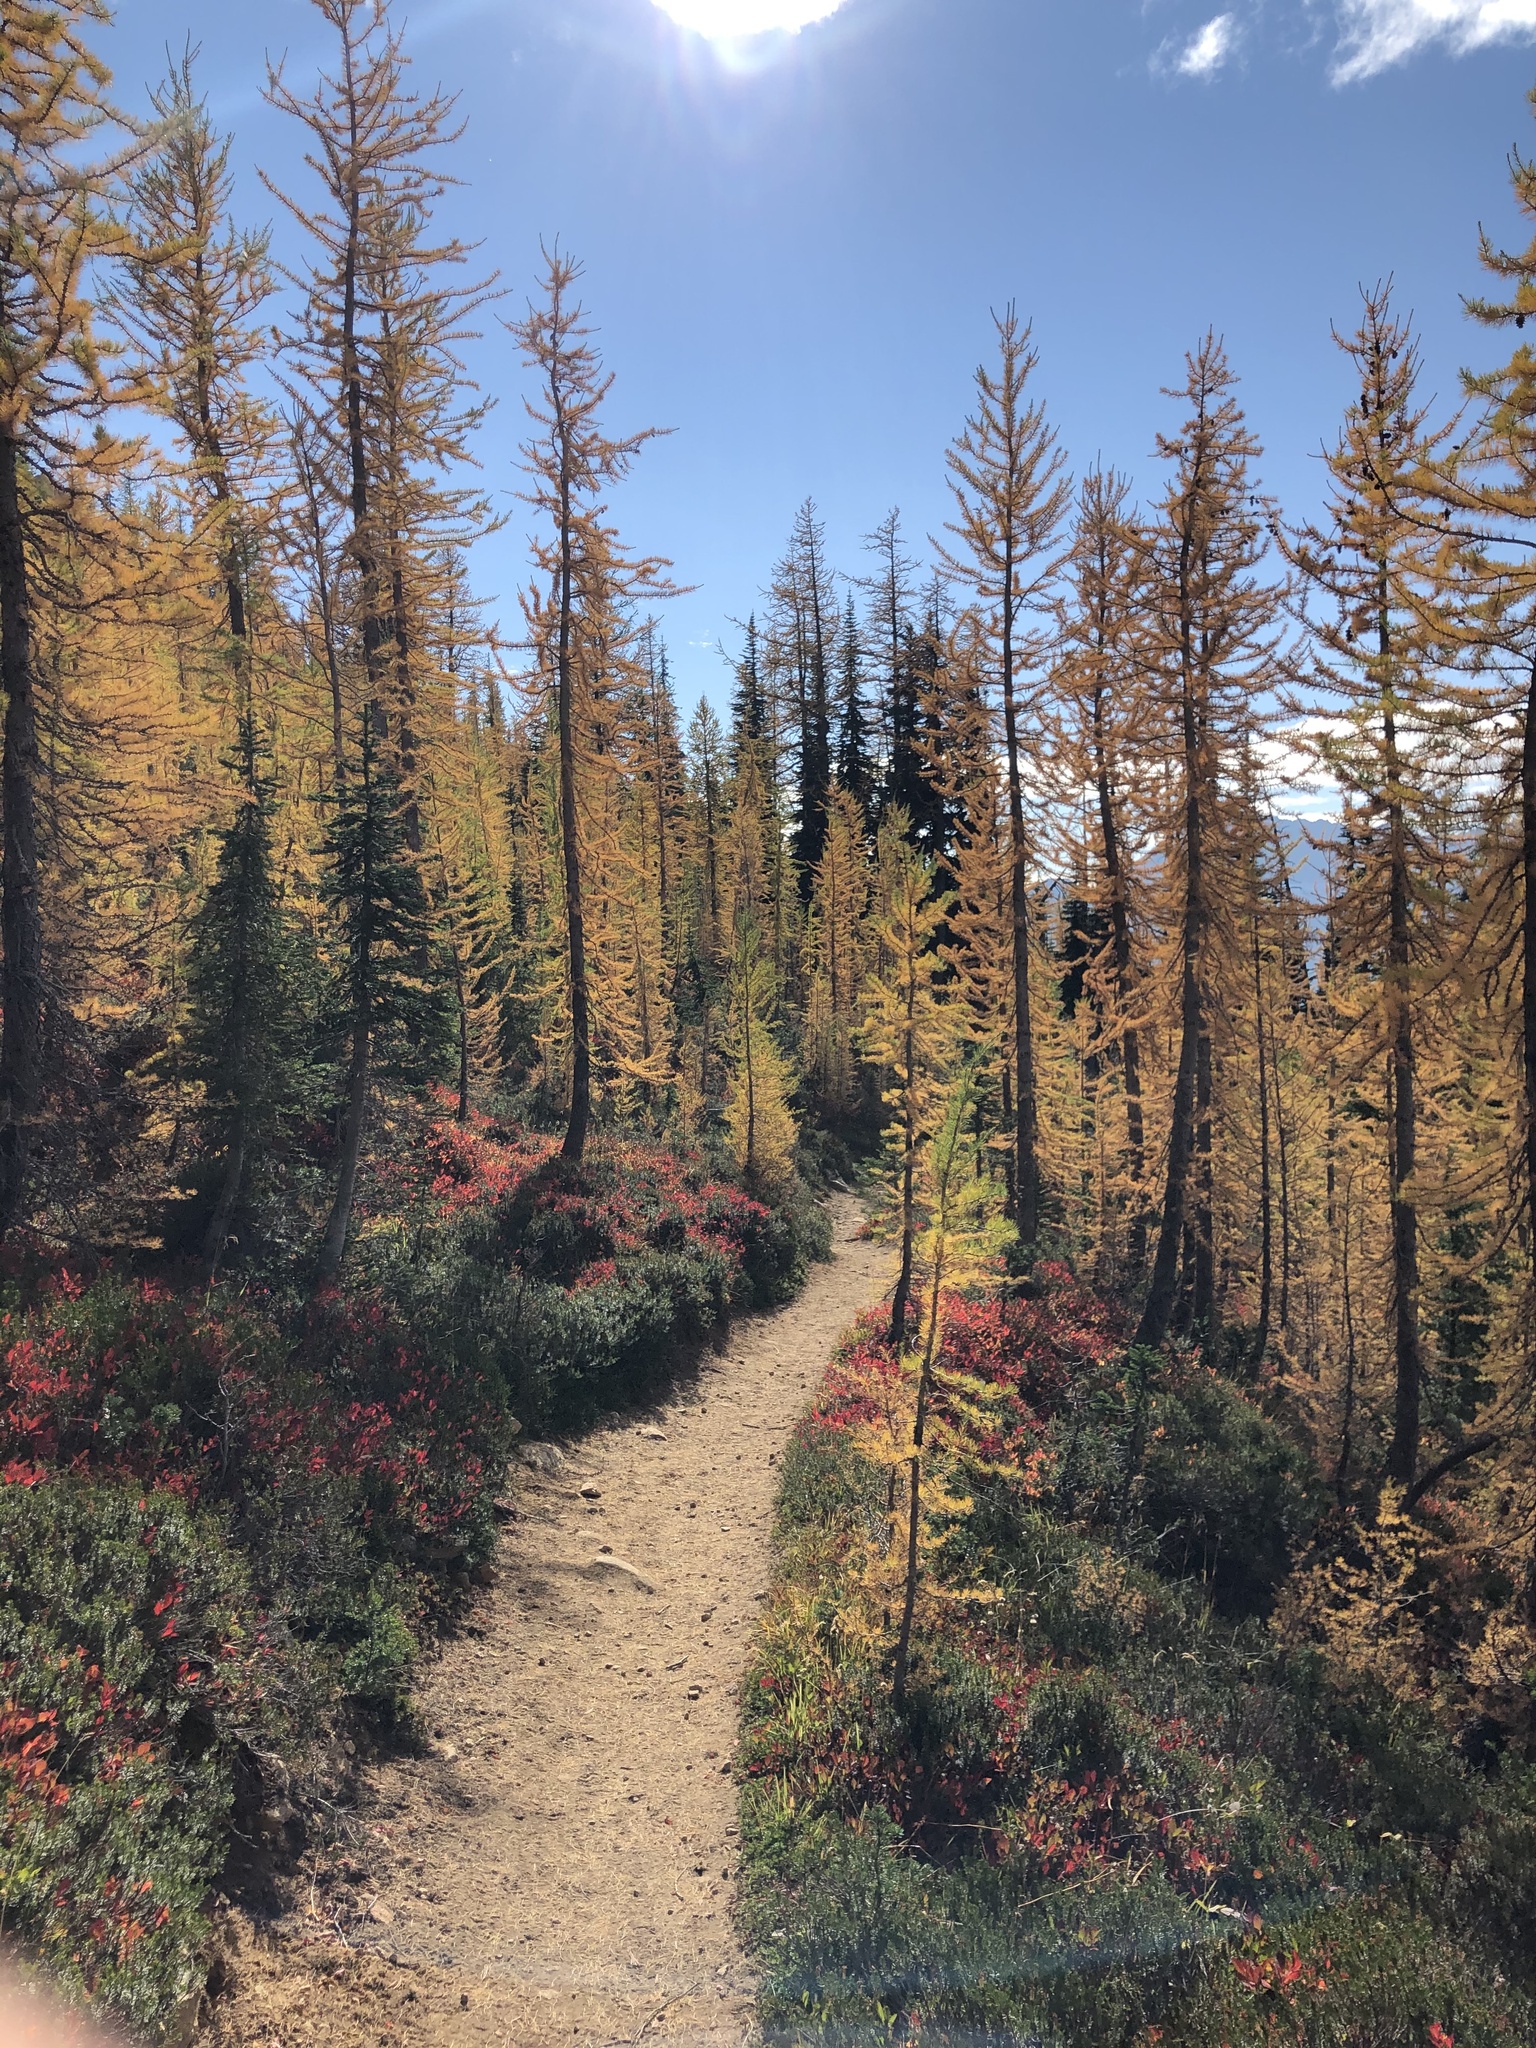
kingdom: Plantae
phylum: Tracheophyta
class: Pinopsida
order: Pinales
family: Pinaceae
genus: Larix
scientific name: Larix lyallii
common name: Alpine larch
